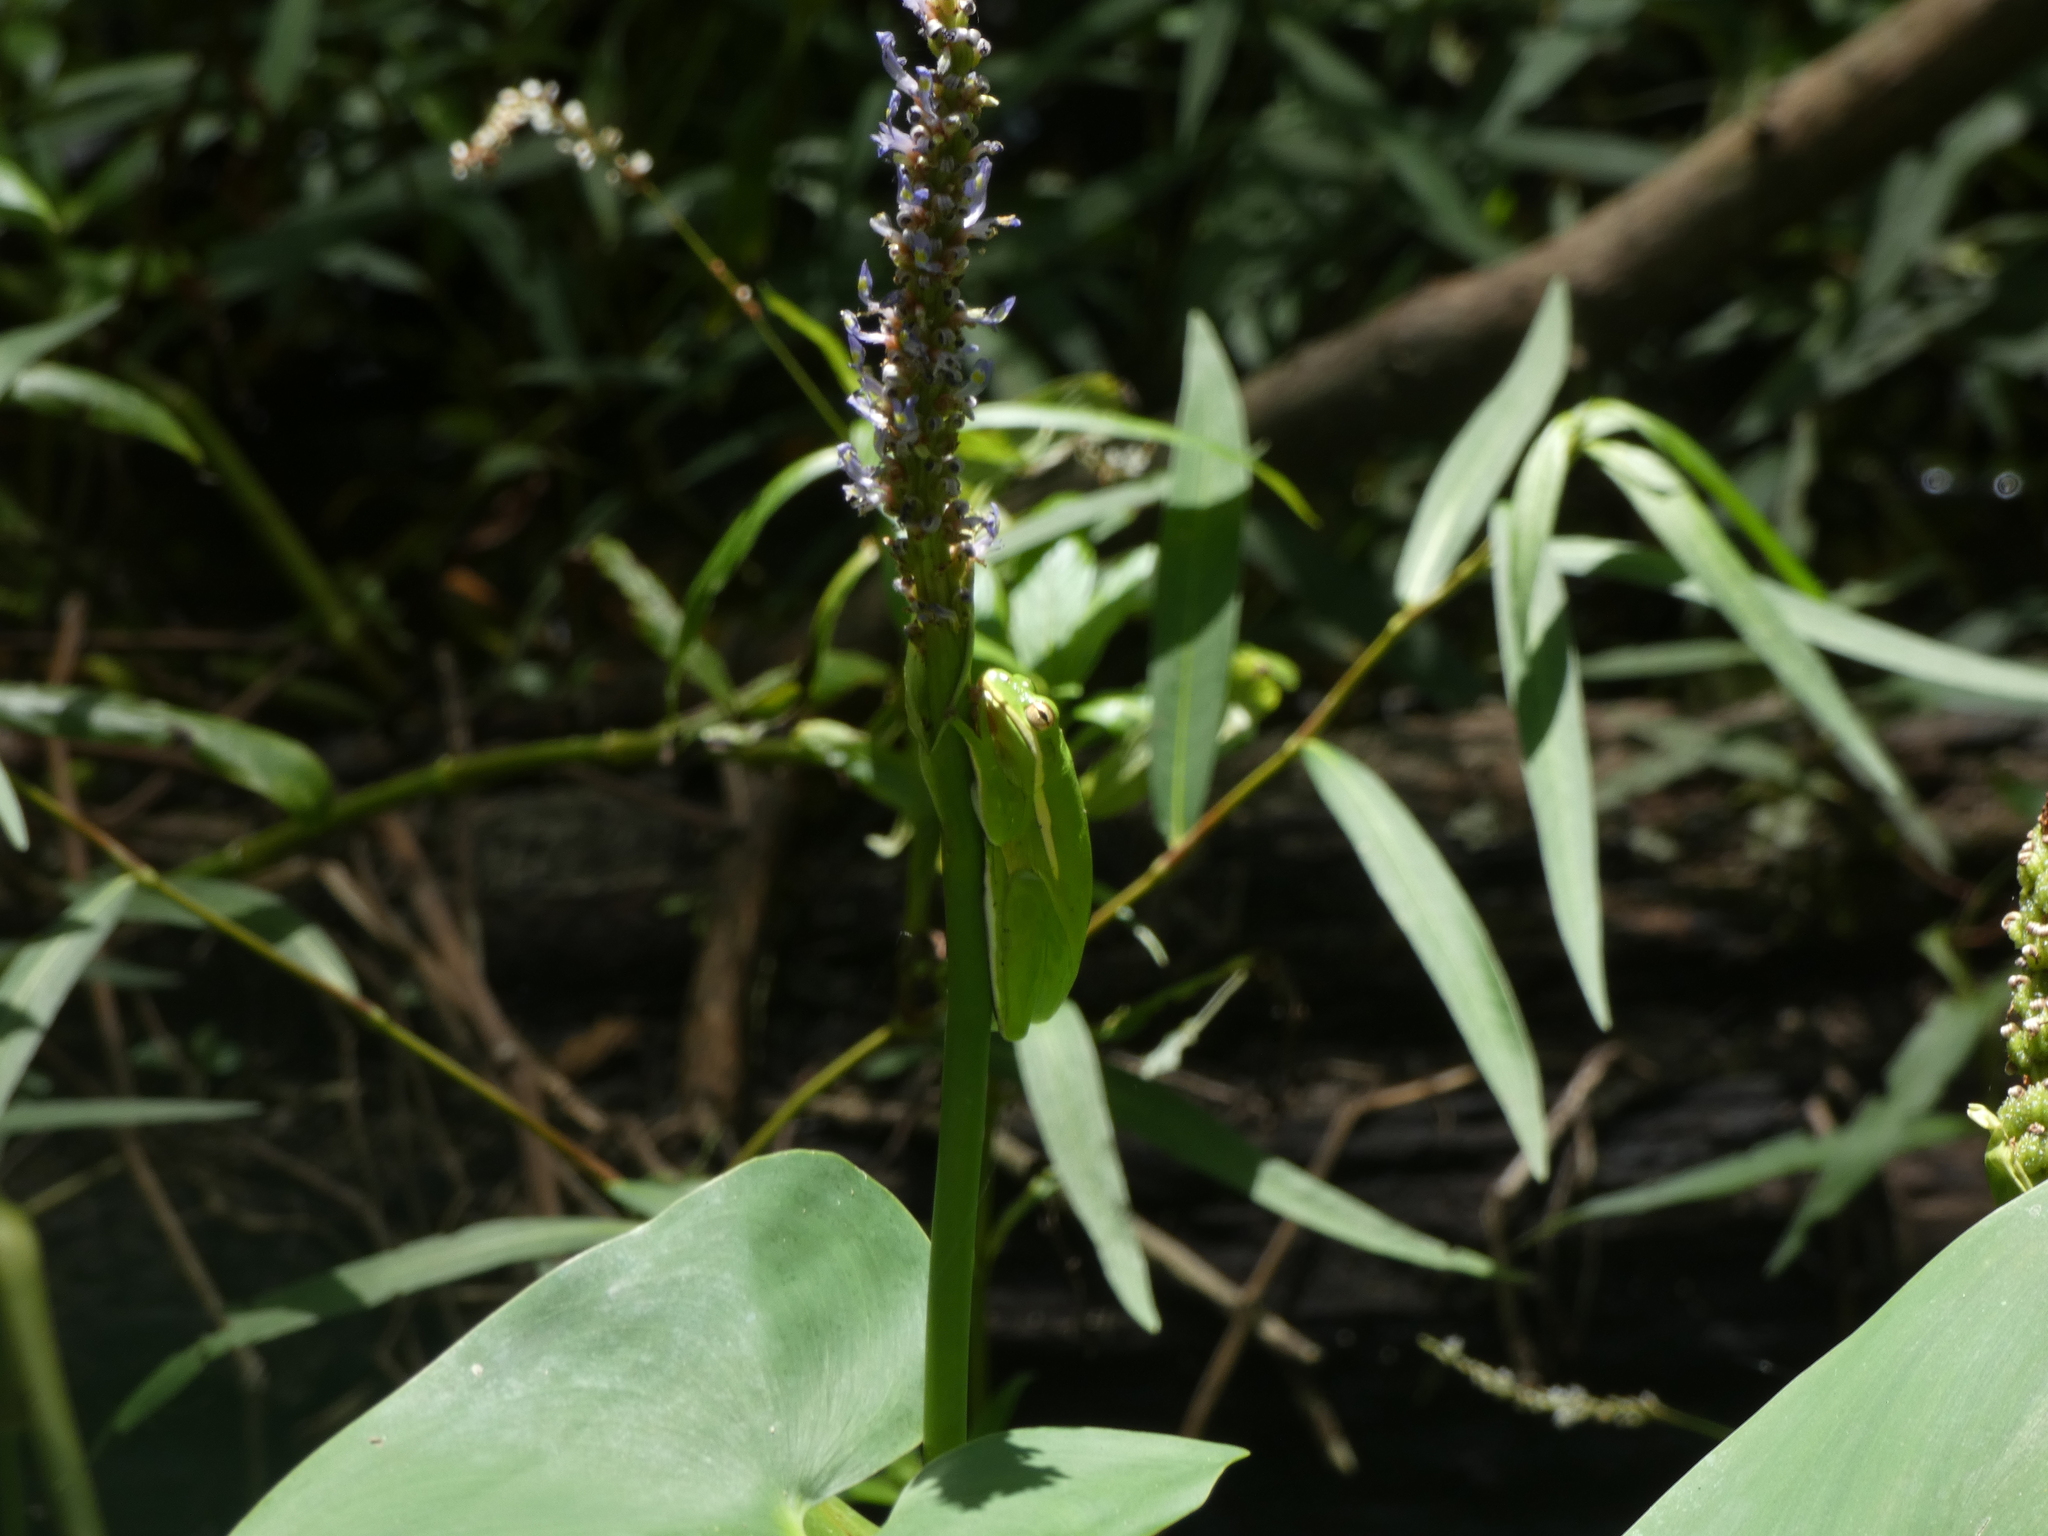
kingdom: Animalia
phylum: Chordata
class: Amphibia
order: Anura
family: Hylidae
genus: Dryophytes
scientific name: Dryophytes cinereus
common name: Green treefrog
